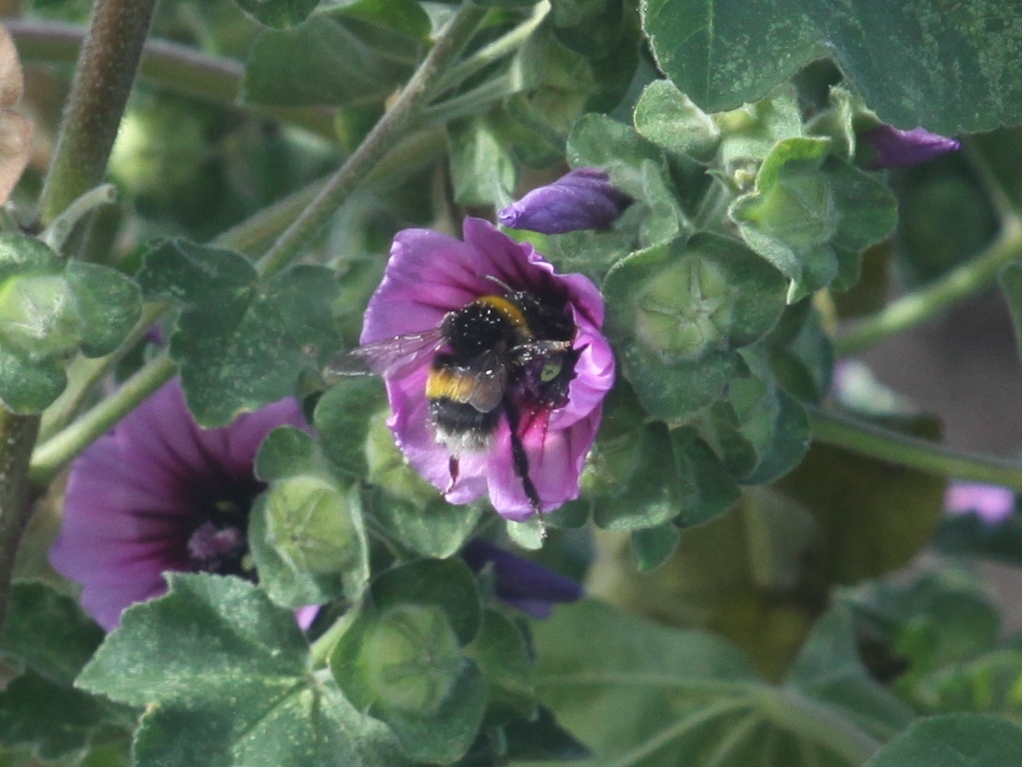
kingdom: Animalia
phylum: Arthropoda
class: Insecta
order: Hymenoptera
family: Apidae
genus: Bombus
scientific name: Bombus terrestris
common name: Buff-tailed bumblebee
